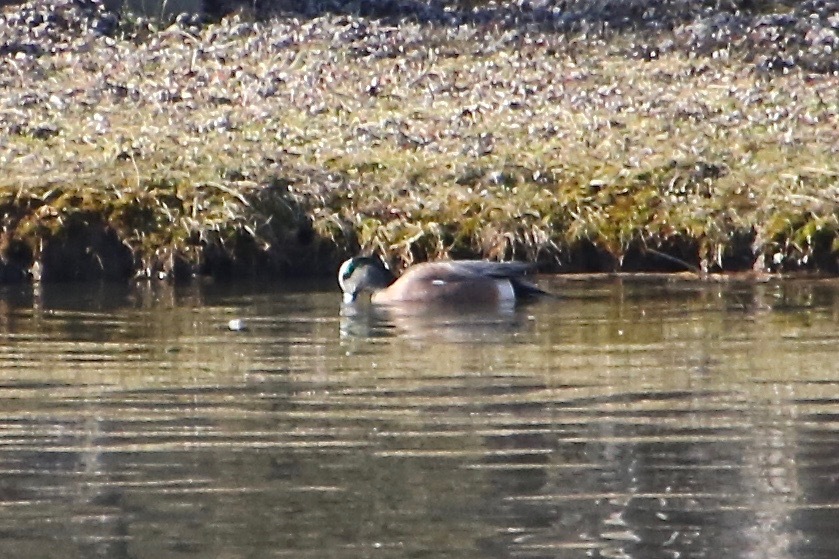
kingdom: Animalia
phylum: Chordata
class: Aves
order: Anseriformes
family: Anatidae
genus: Mareca
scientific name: Mareca americana
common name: American wigeon
